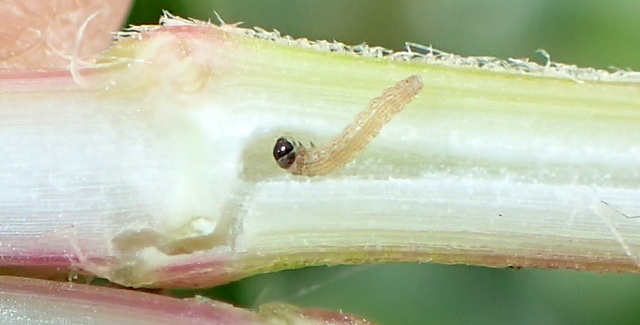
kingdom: Animalia
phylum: Arthropoda
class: Insecta
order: Lepidoptera
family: Pyralidae
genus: Macrorrhinia
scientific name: Macrorrhinia endonephele
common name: Alligator weed stemborer moth
